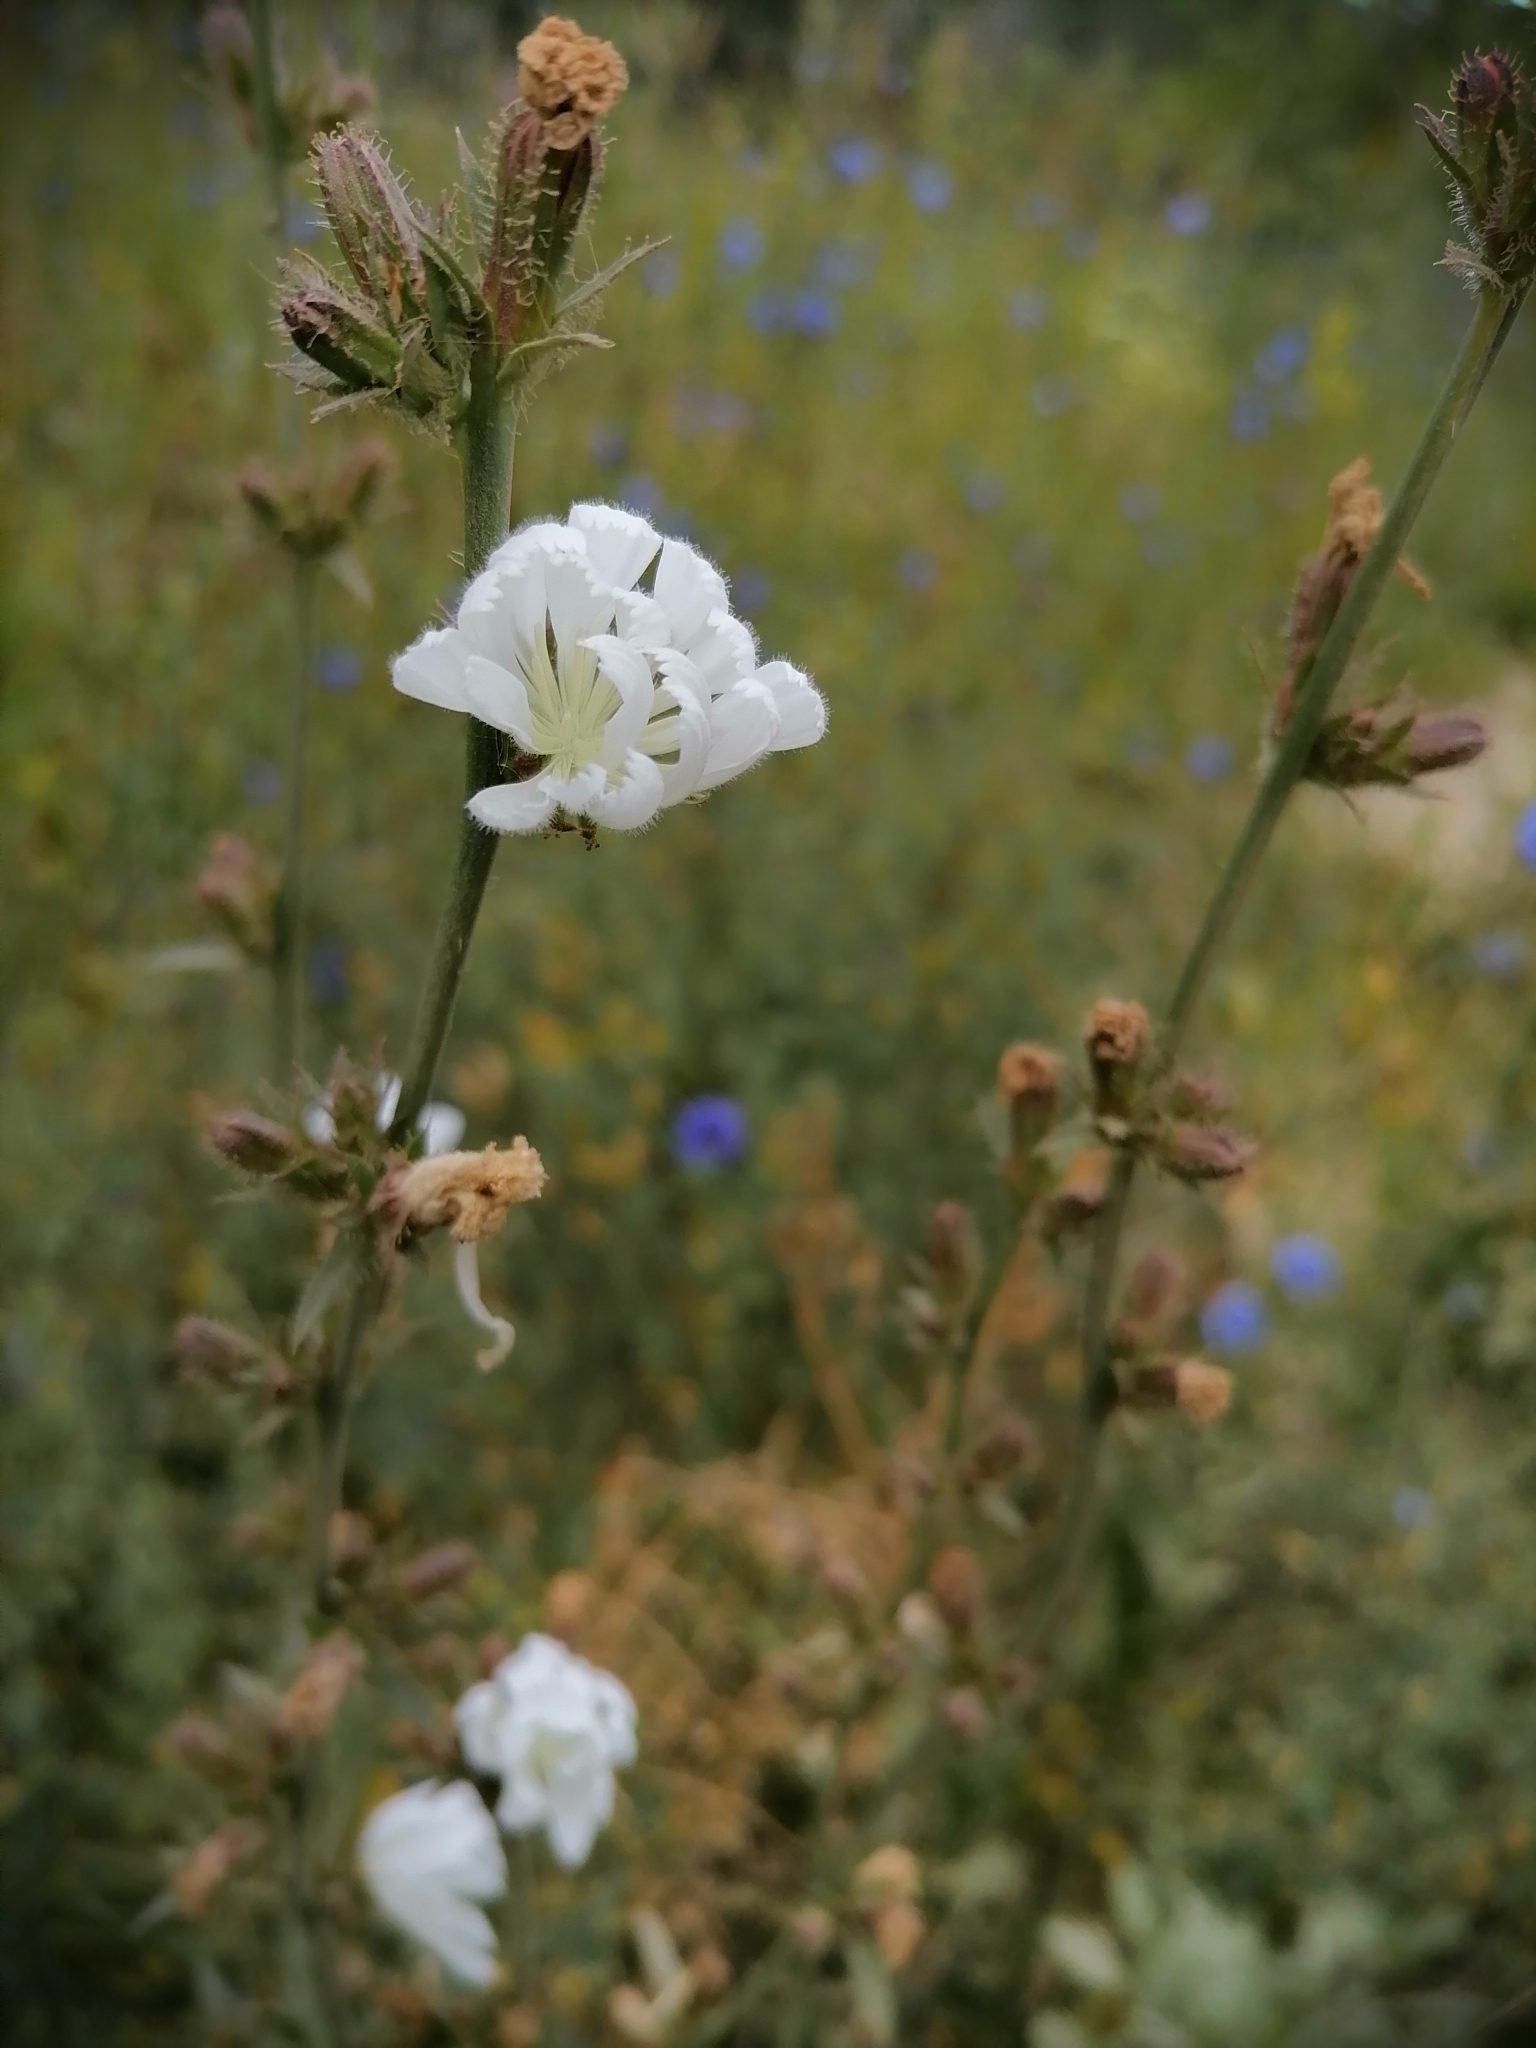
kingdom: Plantae
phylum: Tracheophyta
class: Magnoliopsida
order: Asterales
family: Asteraceae
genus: Cichorium
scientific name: Cichorium intybus
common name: Chicory
